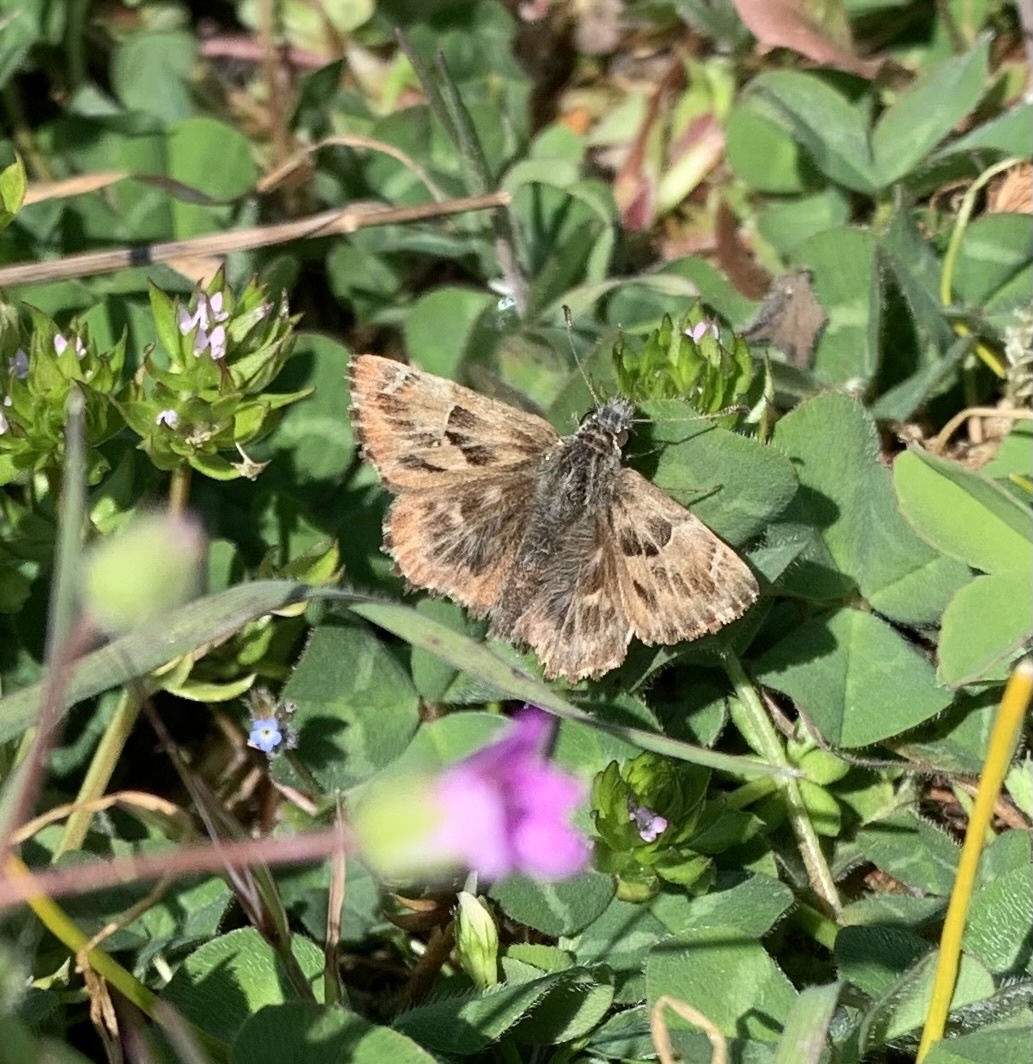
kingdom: Animalia
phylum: Arthropoda
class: Insecta
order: Lepidoptera
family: Hesperiidae
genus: Carcharodus
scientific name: Carcharodus alceae
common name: Mallow skipper
